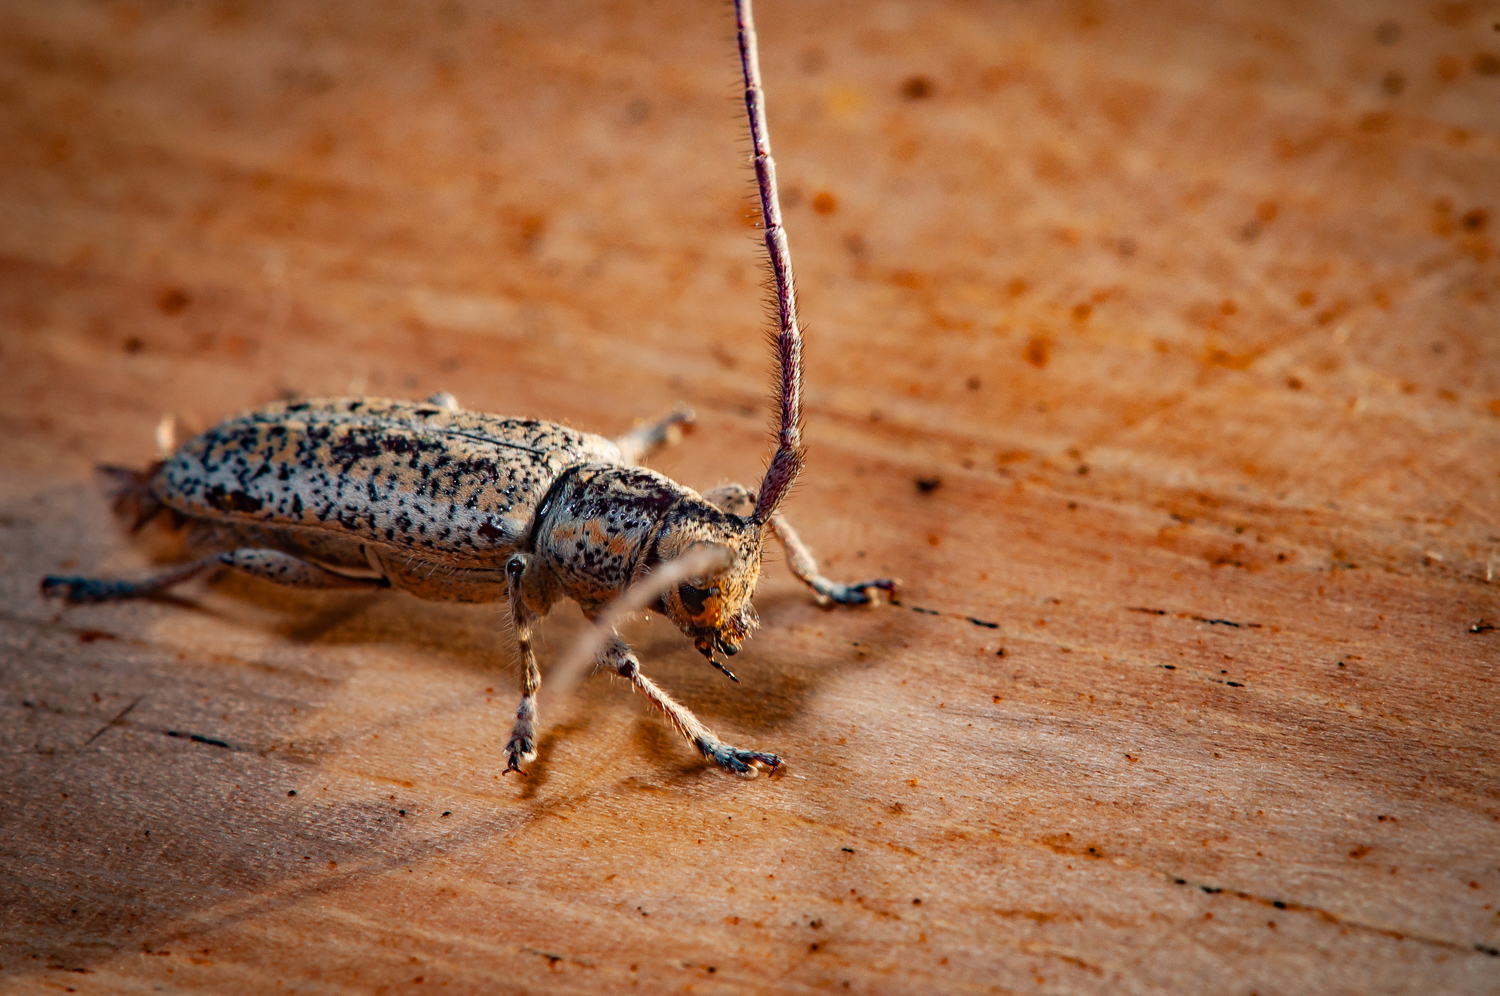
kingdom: Animalia
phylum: Arthropoda
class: Insecta
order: Coleoptera
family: Cerambycidae
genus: Atelodesmis
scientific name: Atelodesmis piperita
